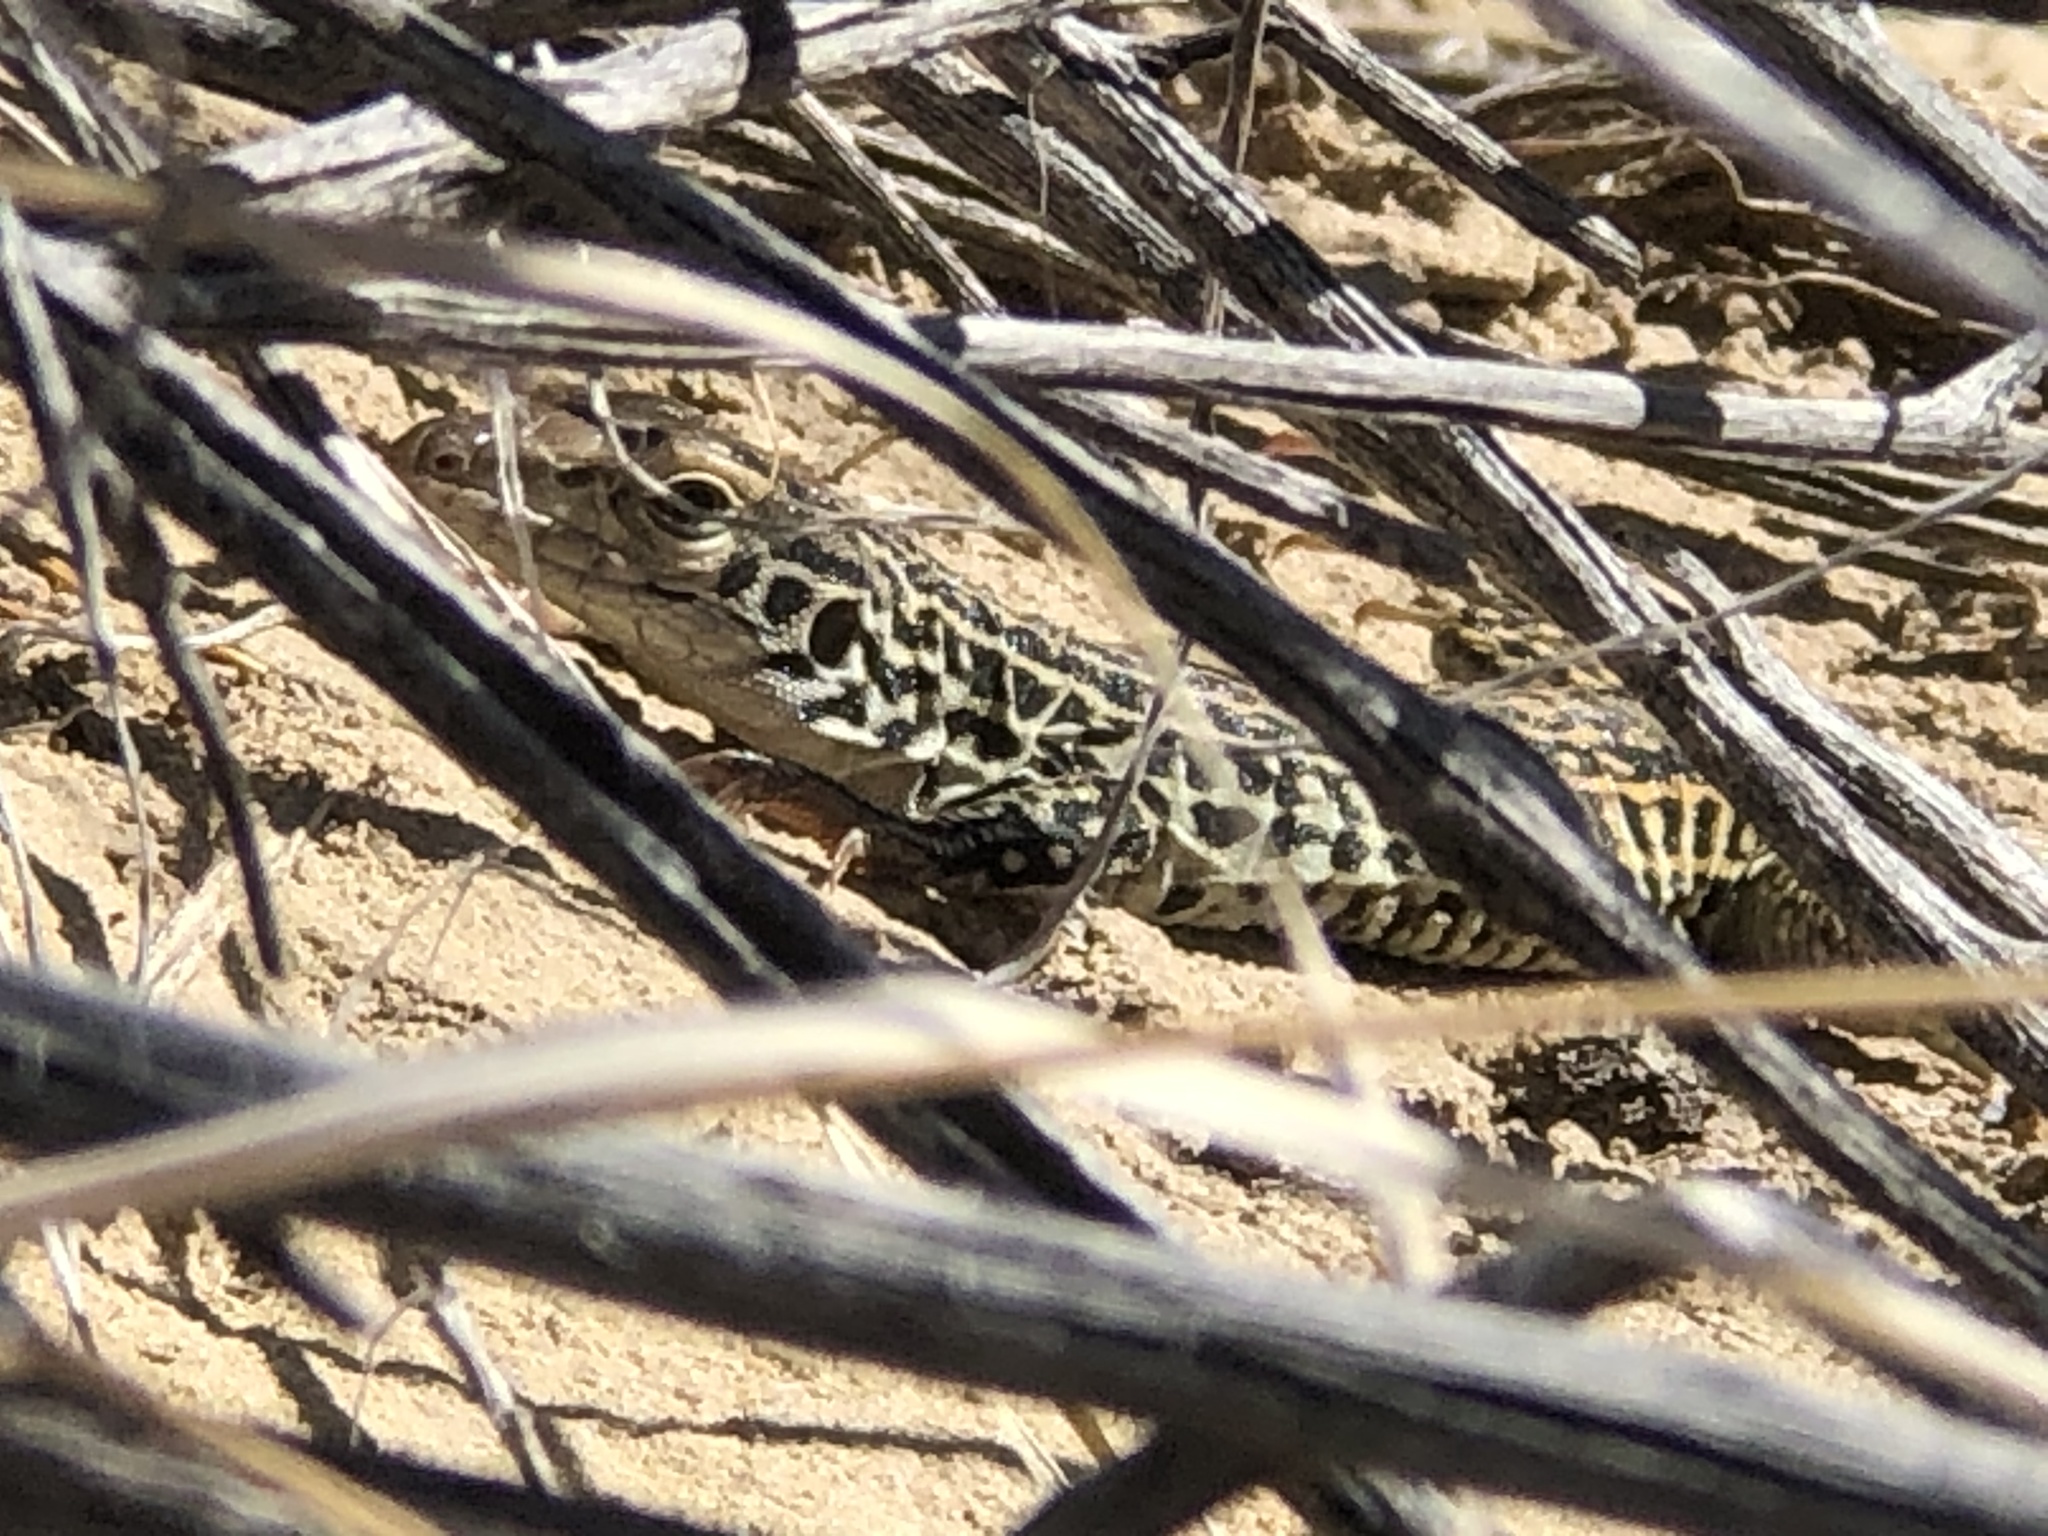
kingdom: Animalia
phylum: Chordata
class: Squamata
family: Teiidae
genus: Aspidoscelis
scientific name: Aspidoscelis tesselatus
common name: Common checkered whiptail [tesselata]
